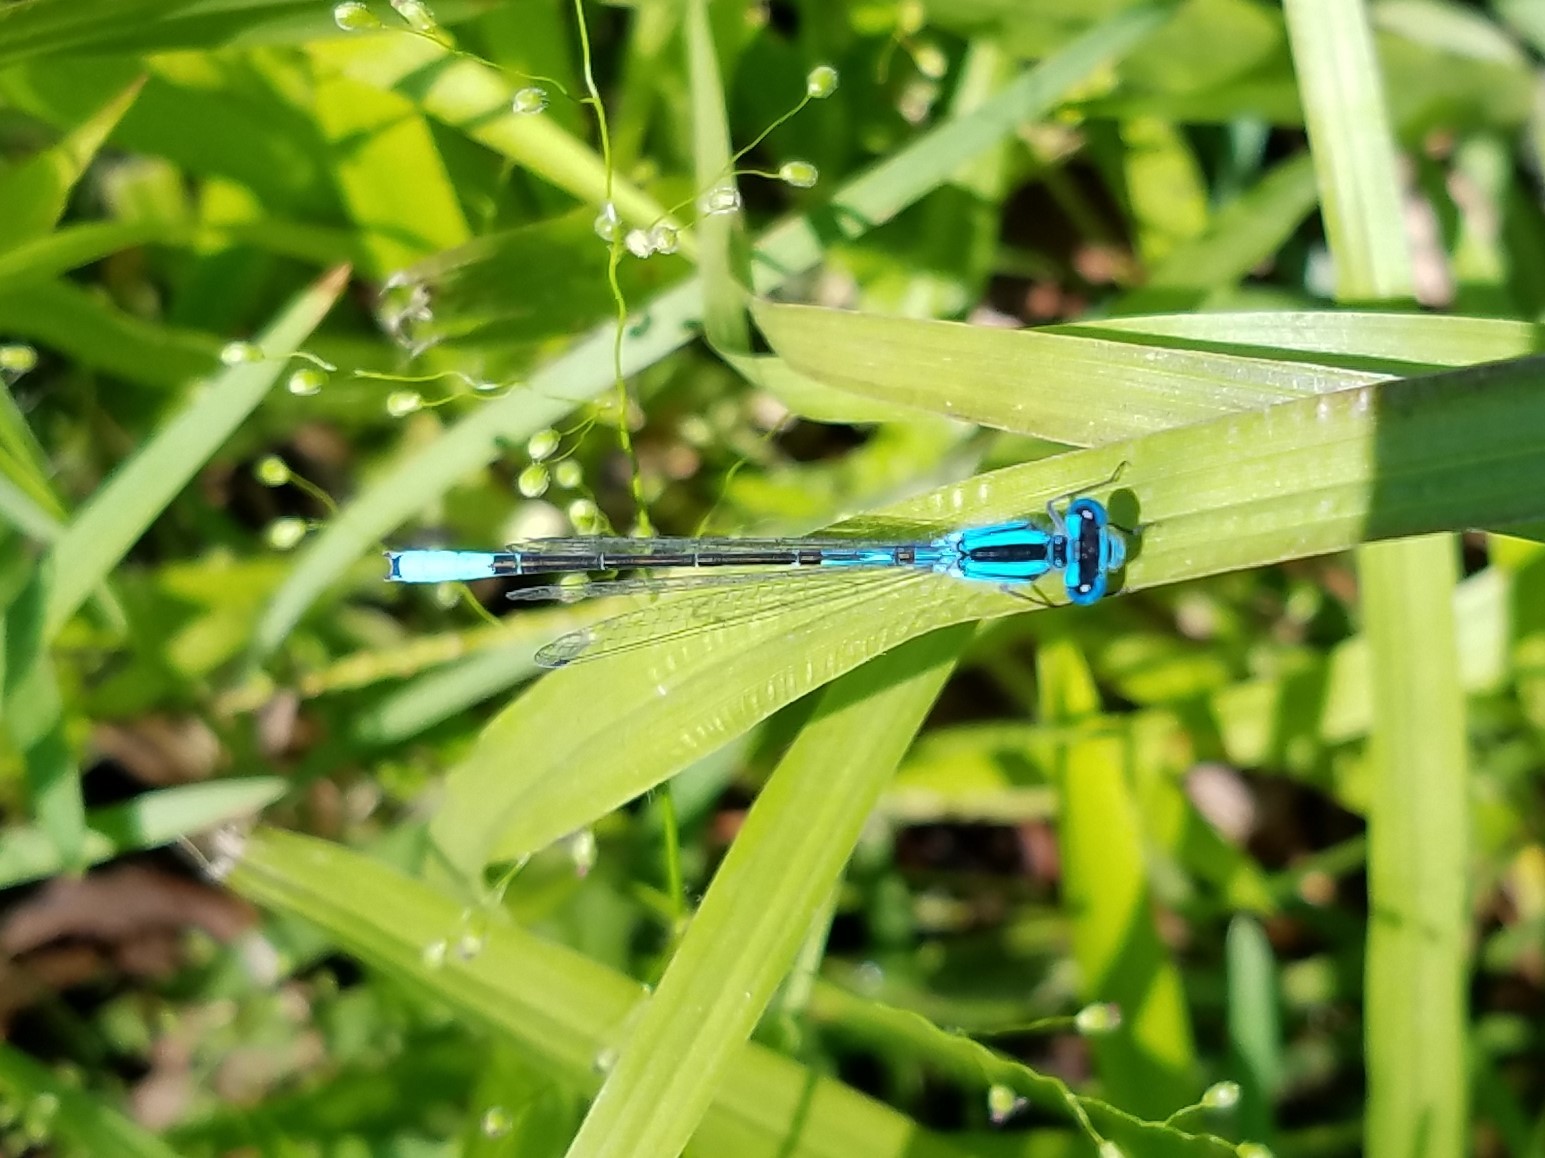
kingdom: Animalia
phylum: Arthropoda
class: Insecta
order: Odonata
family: Coenagrionidae
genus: Enallagma
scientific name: Enallagma aspersum
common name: Azure bluet
